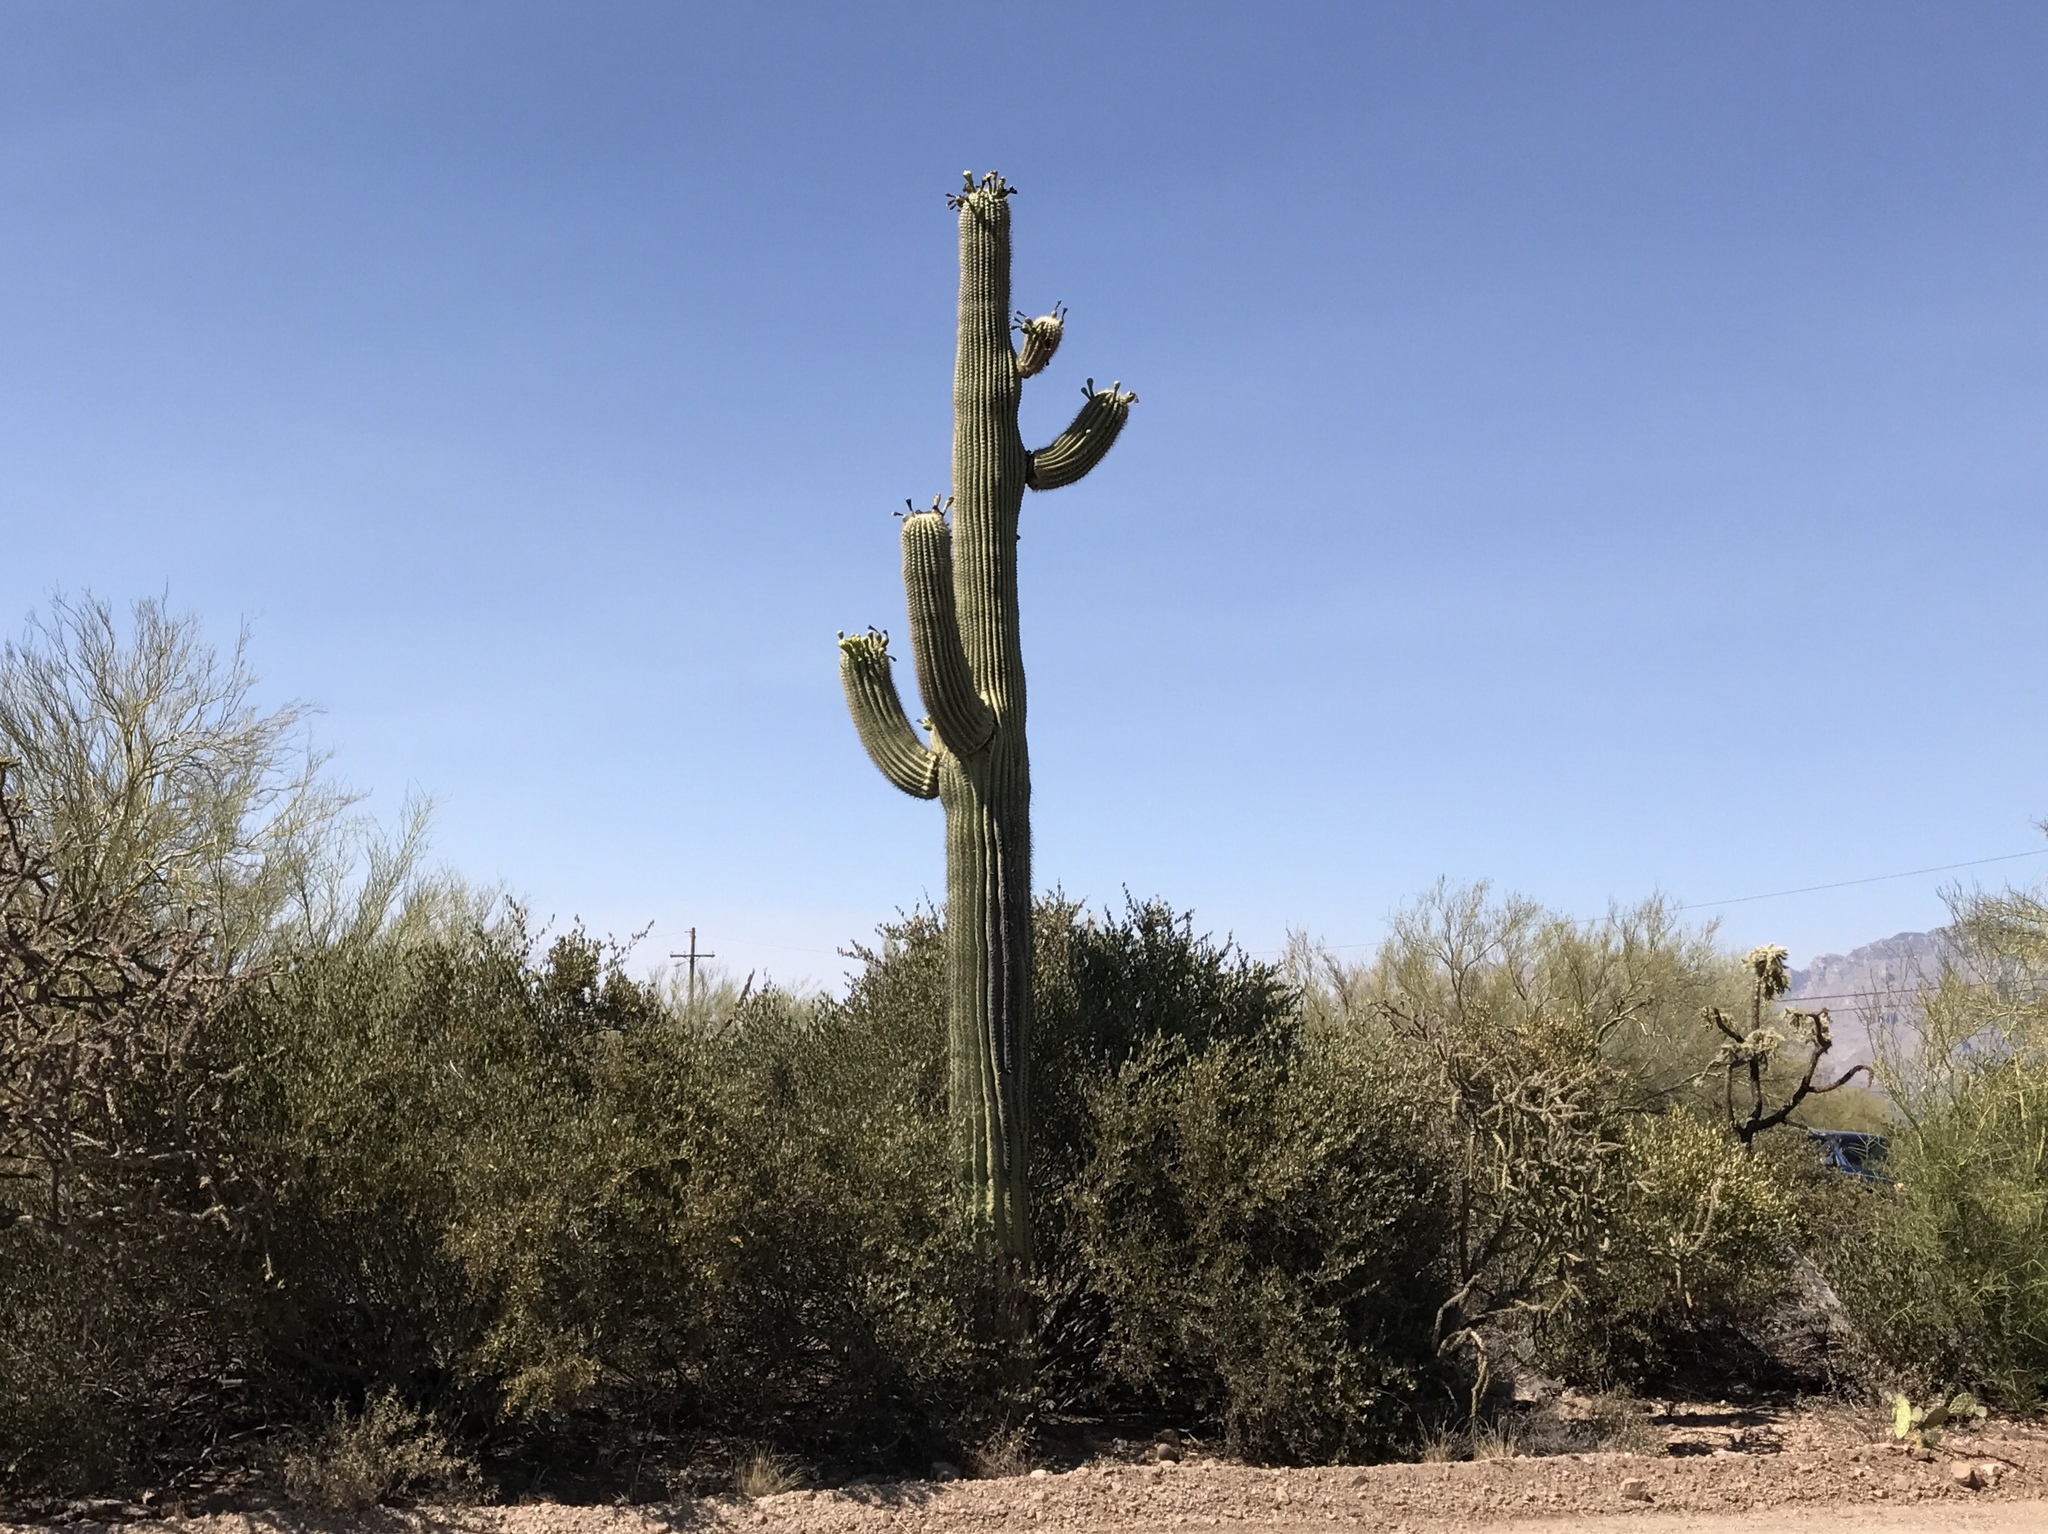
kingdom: Plantae
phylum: Tracheophyta
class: Magnoliopsida
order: Caryophyllales
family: Cactaceae
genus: Carnegiea
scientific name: Carnegiea gigantea
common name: Saguaro
